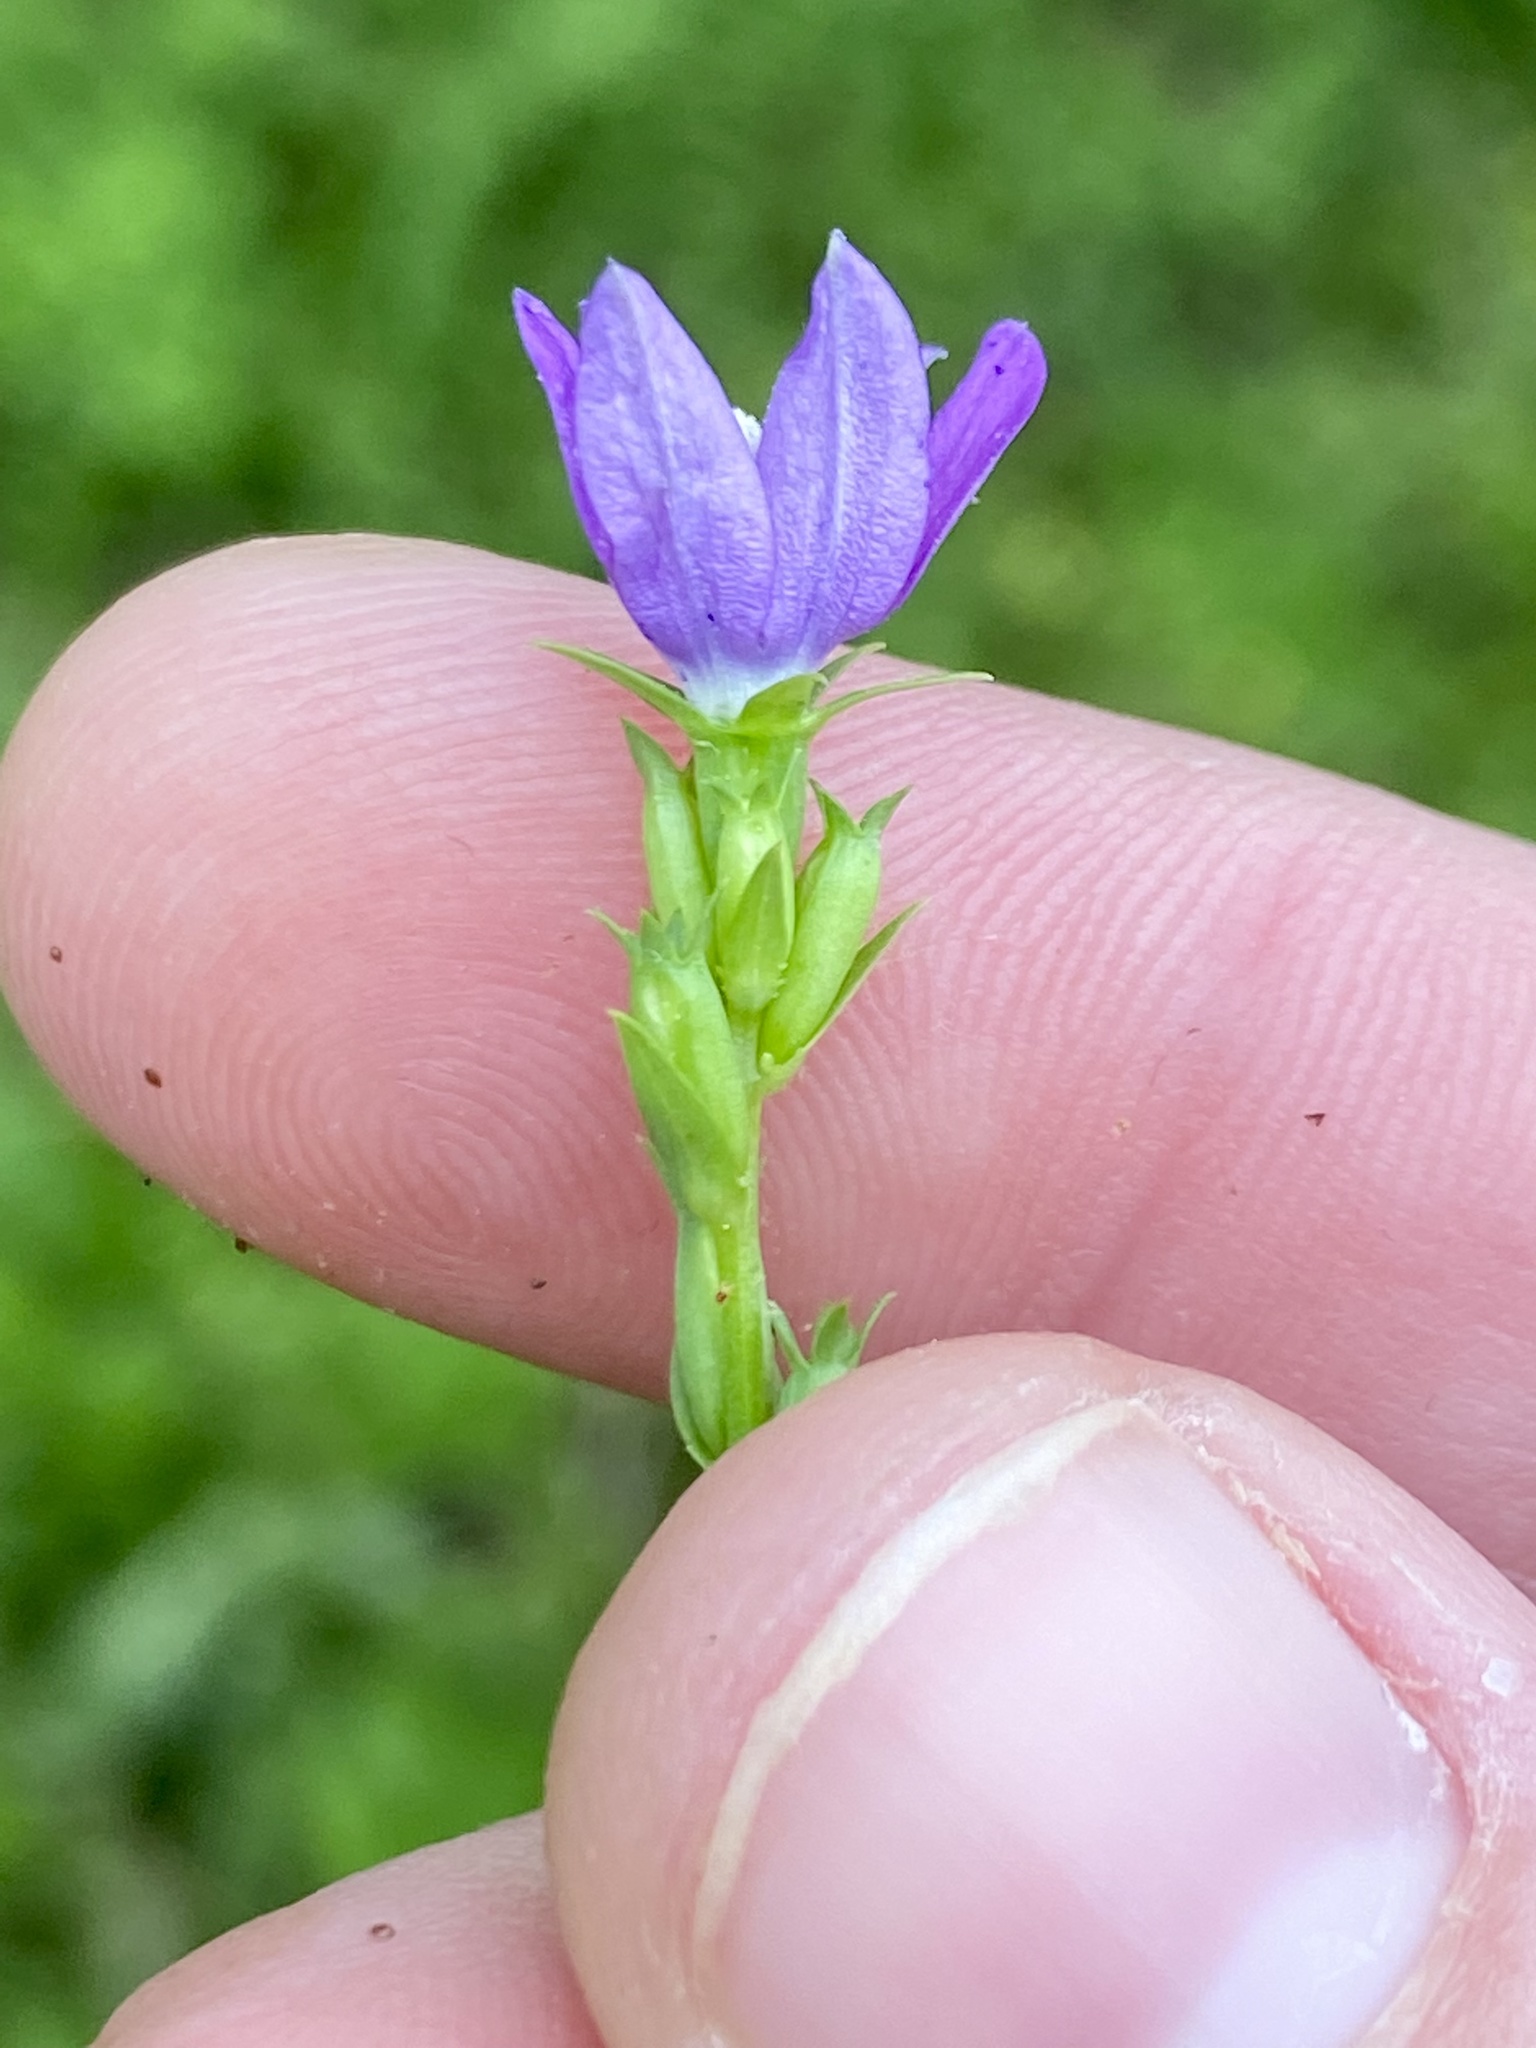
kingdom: Plantae
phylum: Tracheophyta
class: Magnoliopsida
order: Asterales
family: Campanulaceae
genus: Triodanis
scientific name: Triodanis biflora
